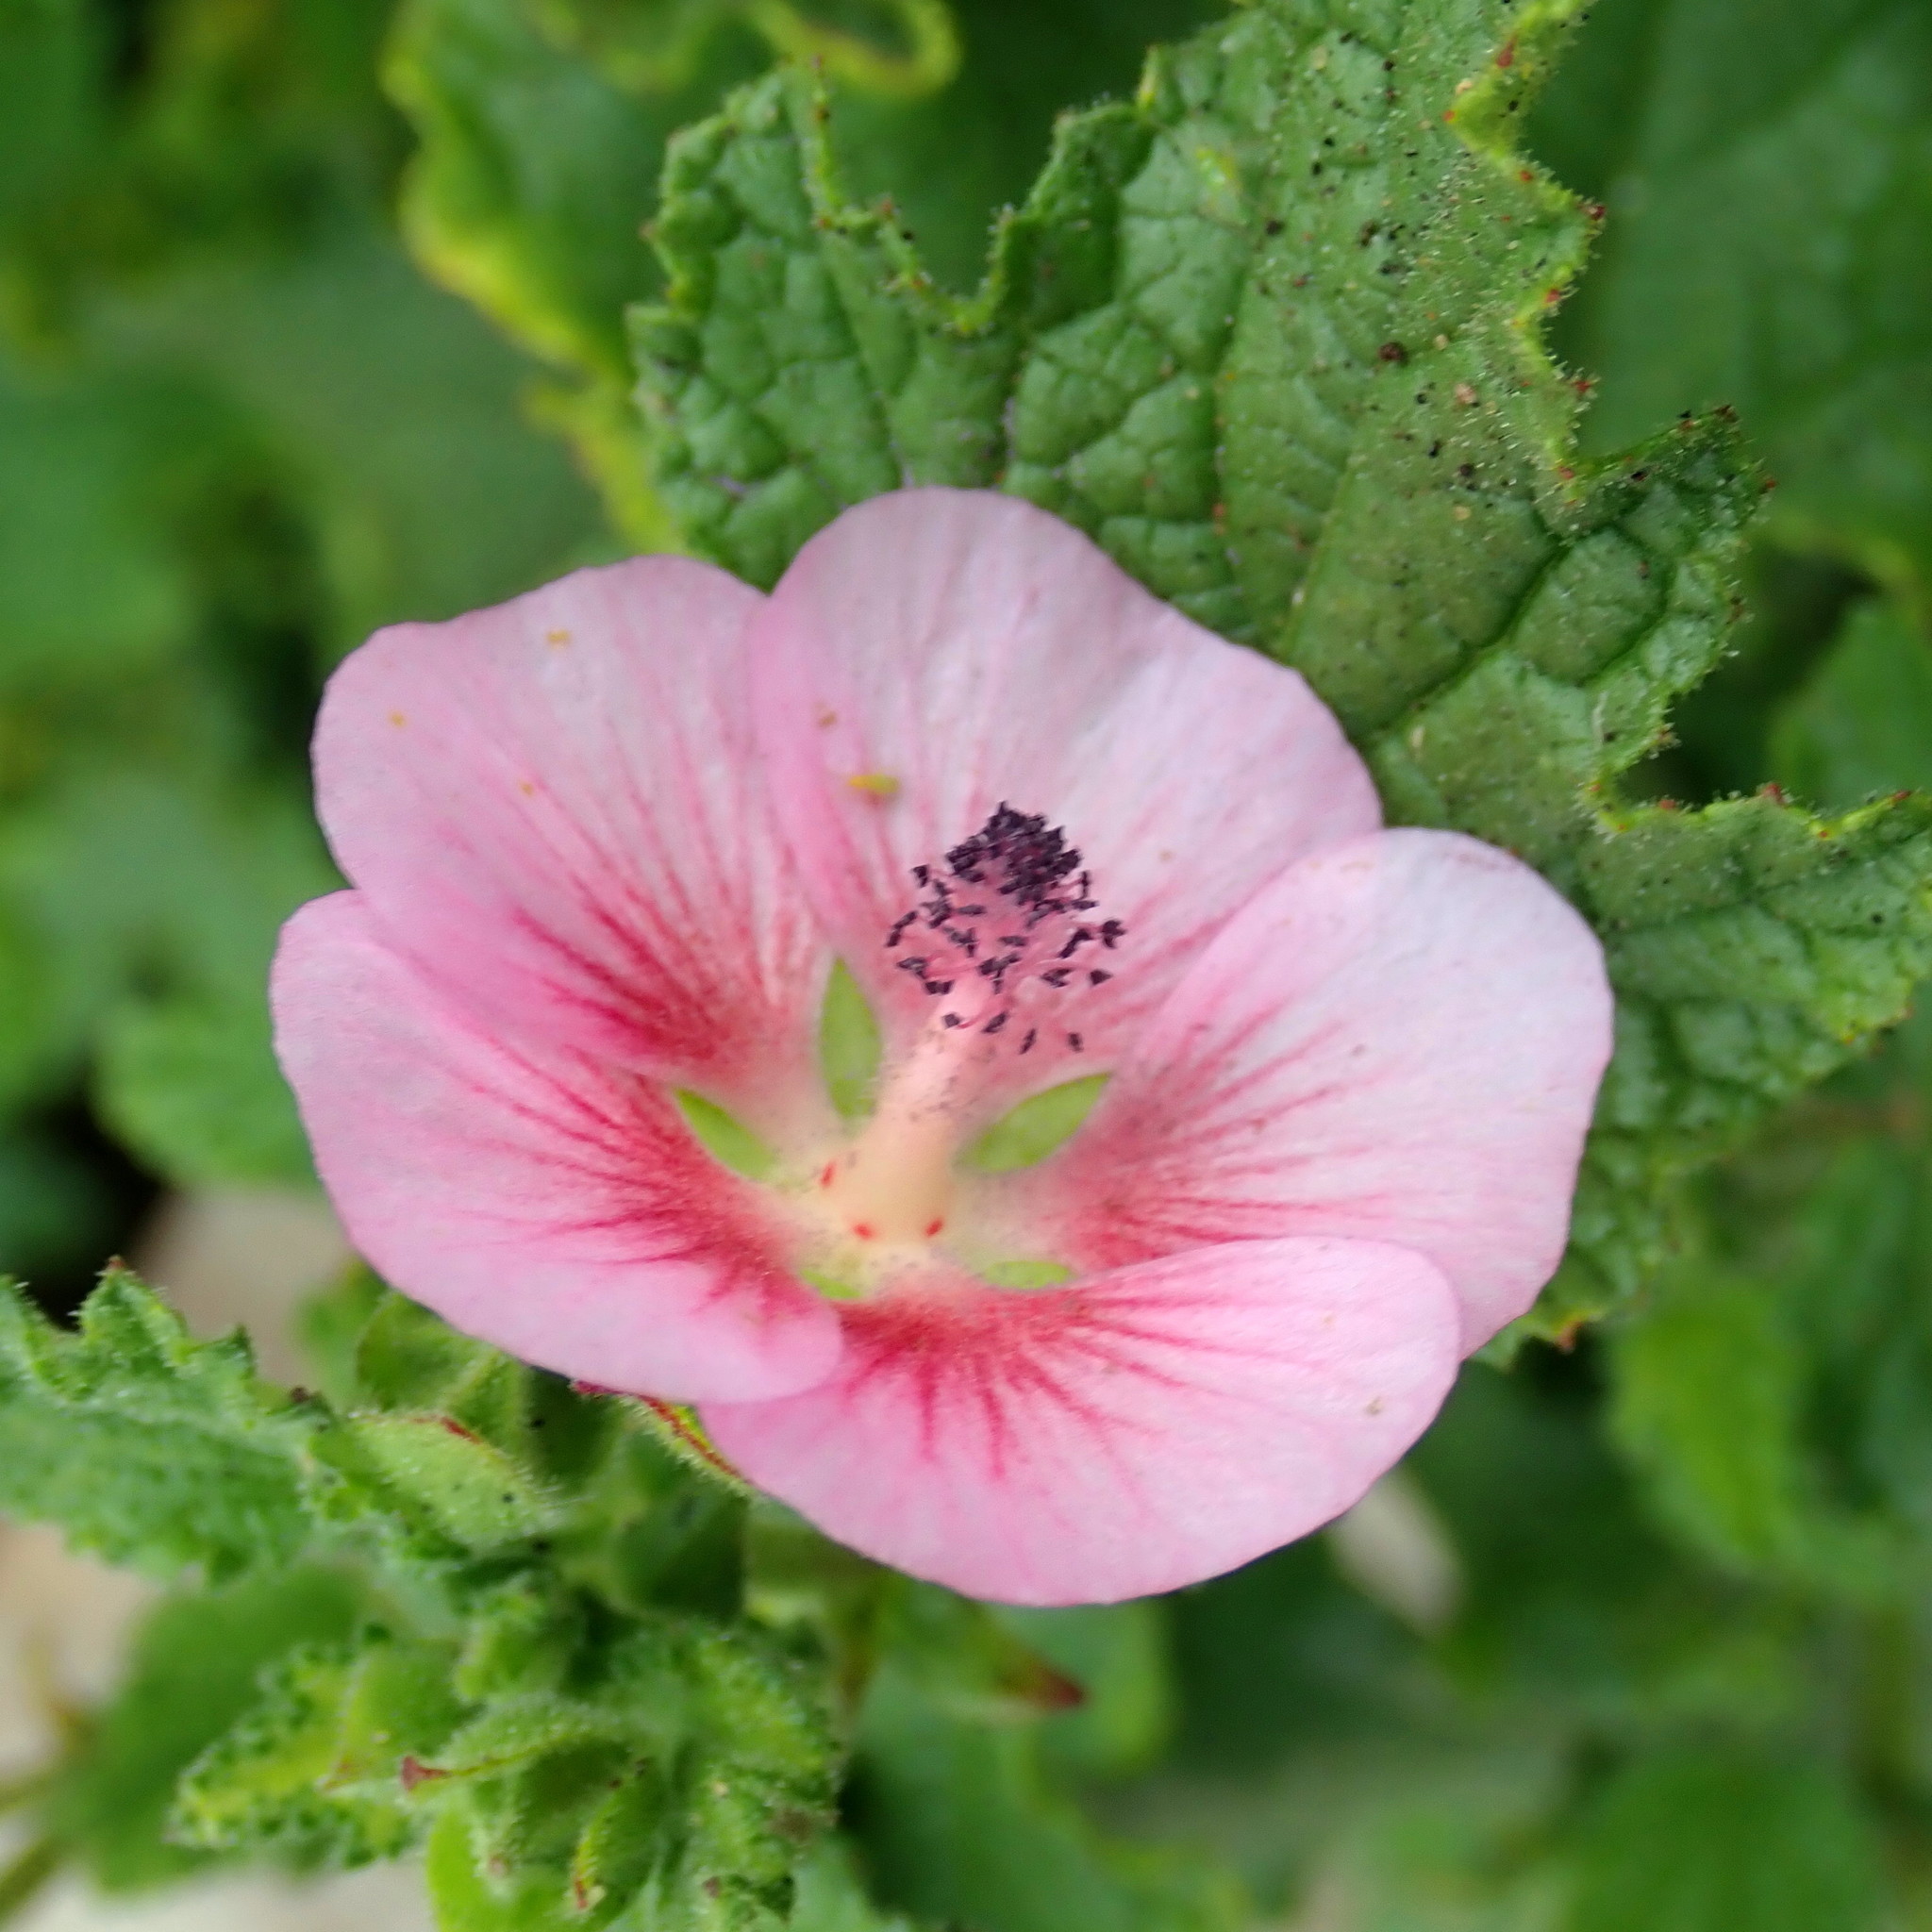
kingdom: Plantae
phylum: Tracheophyta
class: Magnoliopsida
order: Malvales
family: Malvaceae
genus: Anisodontea
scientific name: Anisodontea scabrosa
